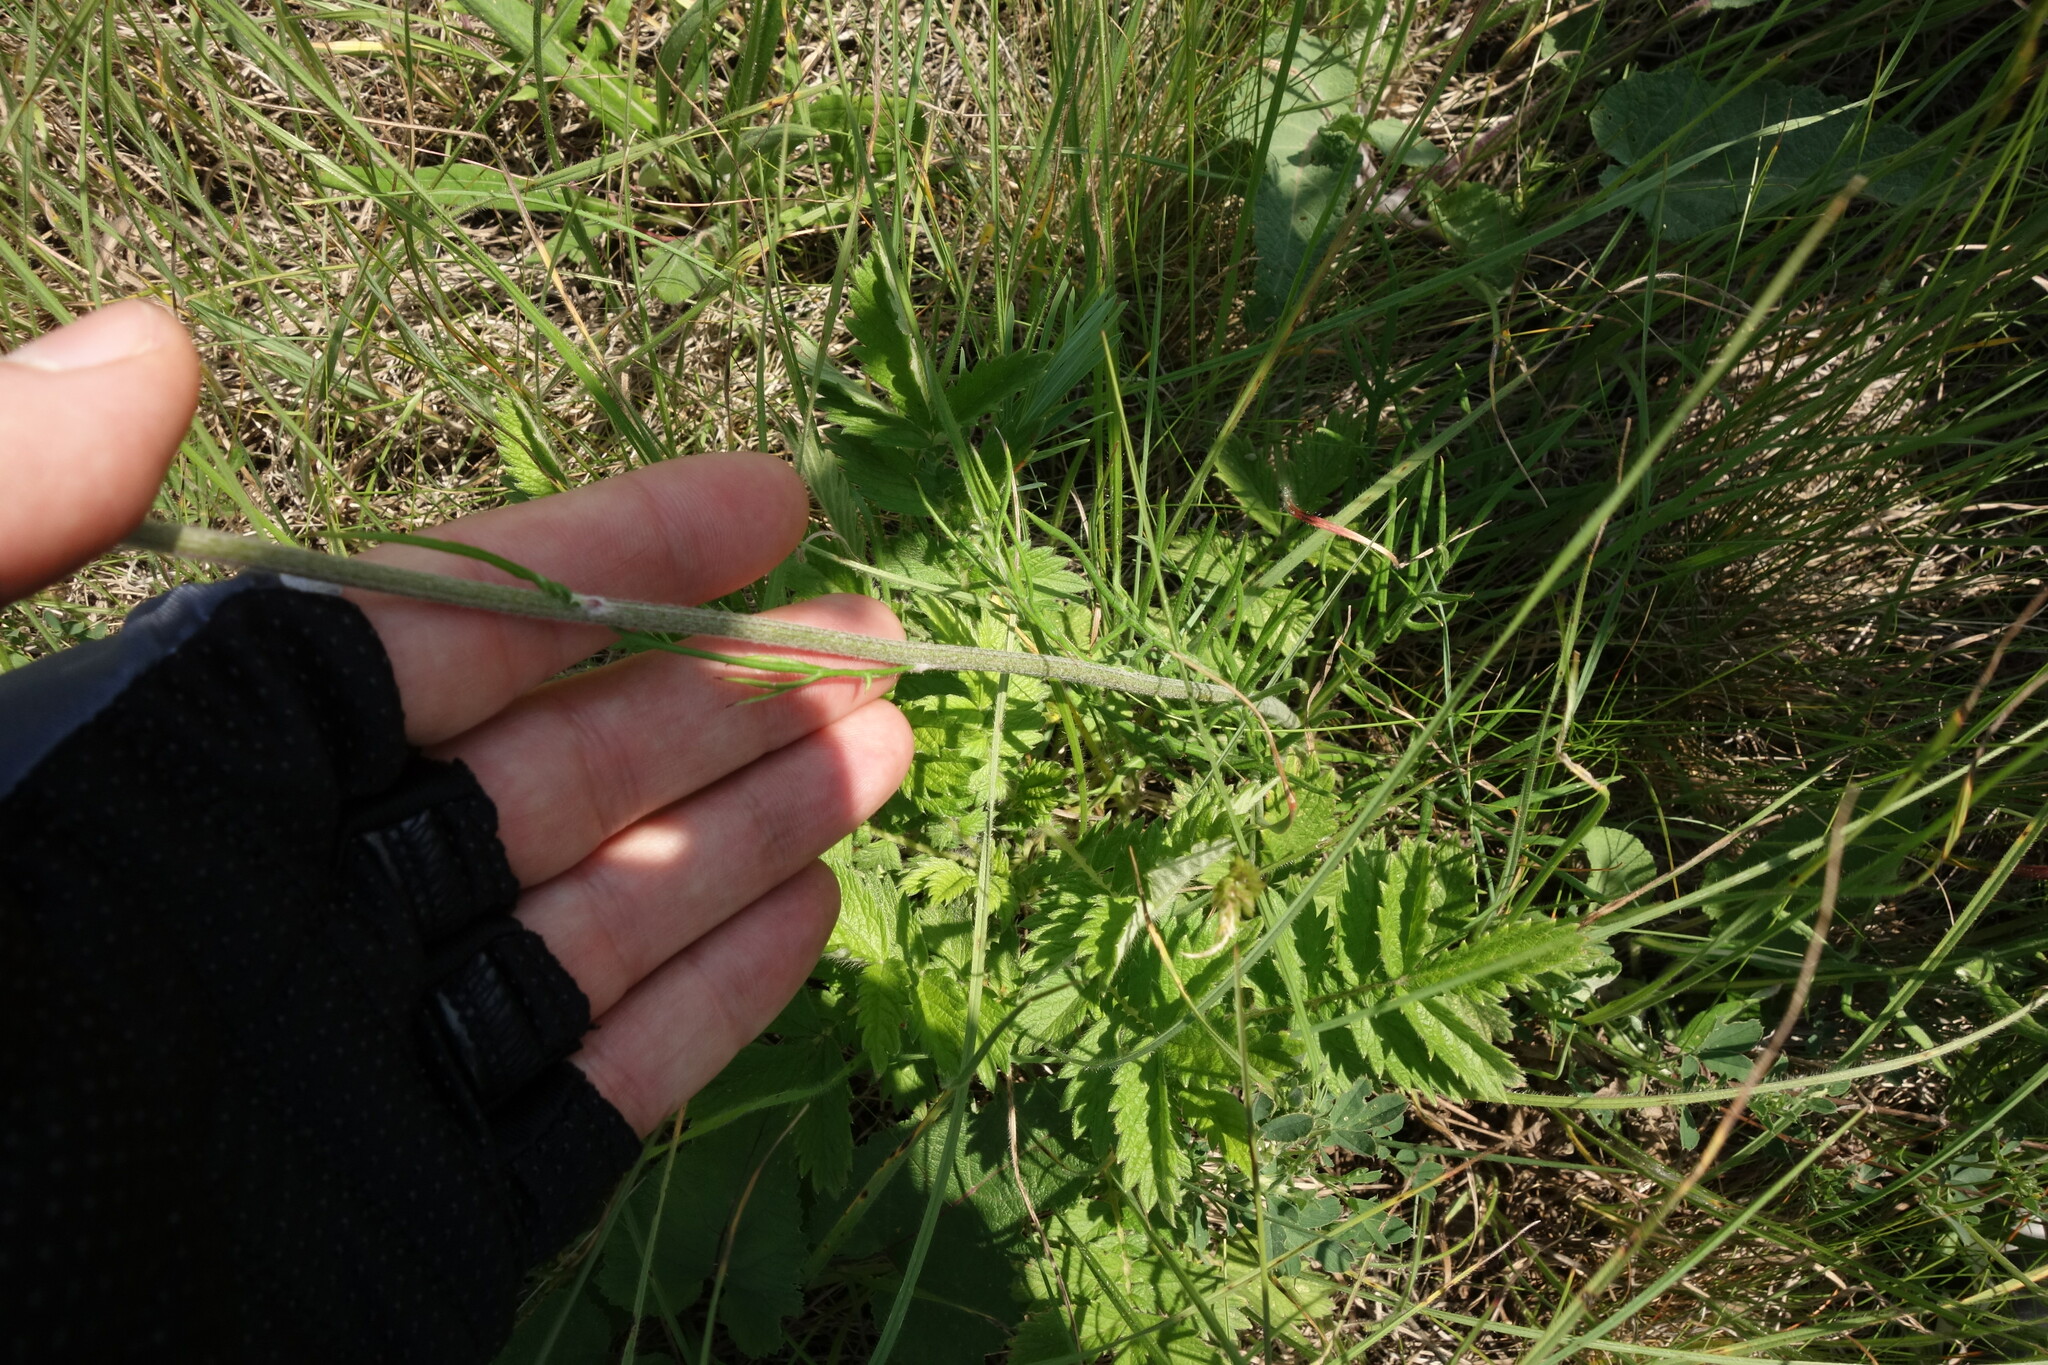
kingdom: Plantae
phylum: Tracheophyta
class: Magnoliopsida
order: Asterales
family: Asteraceae
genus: Jurinea
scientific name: Jurinea arachnoidea
